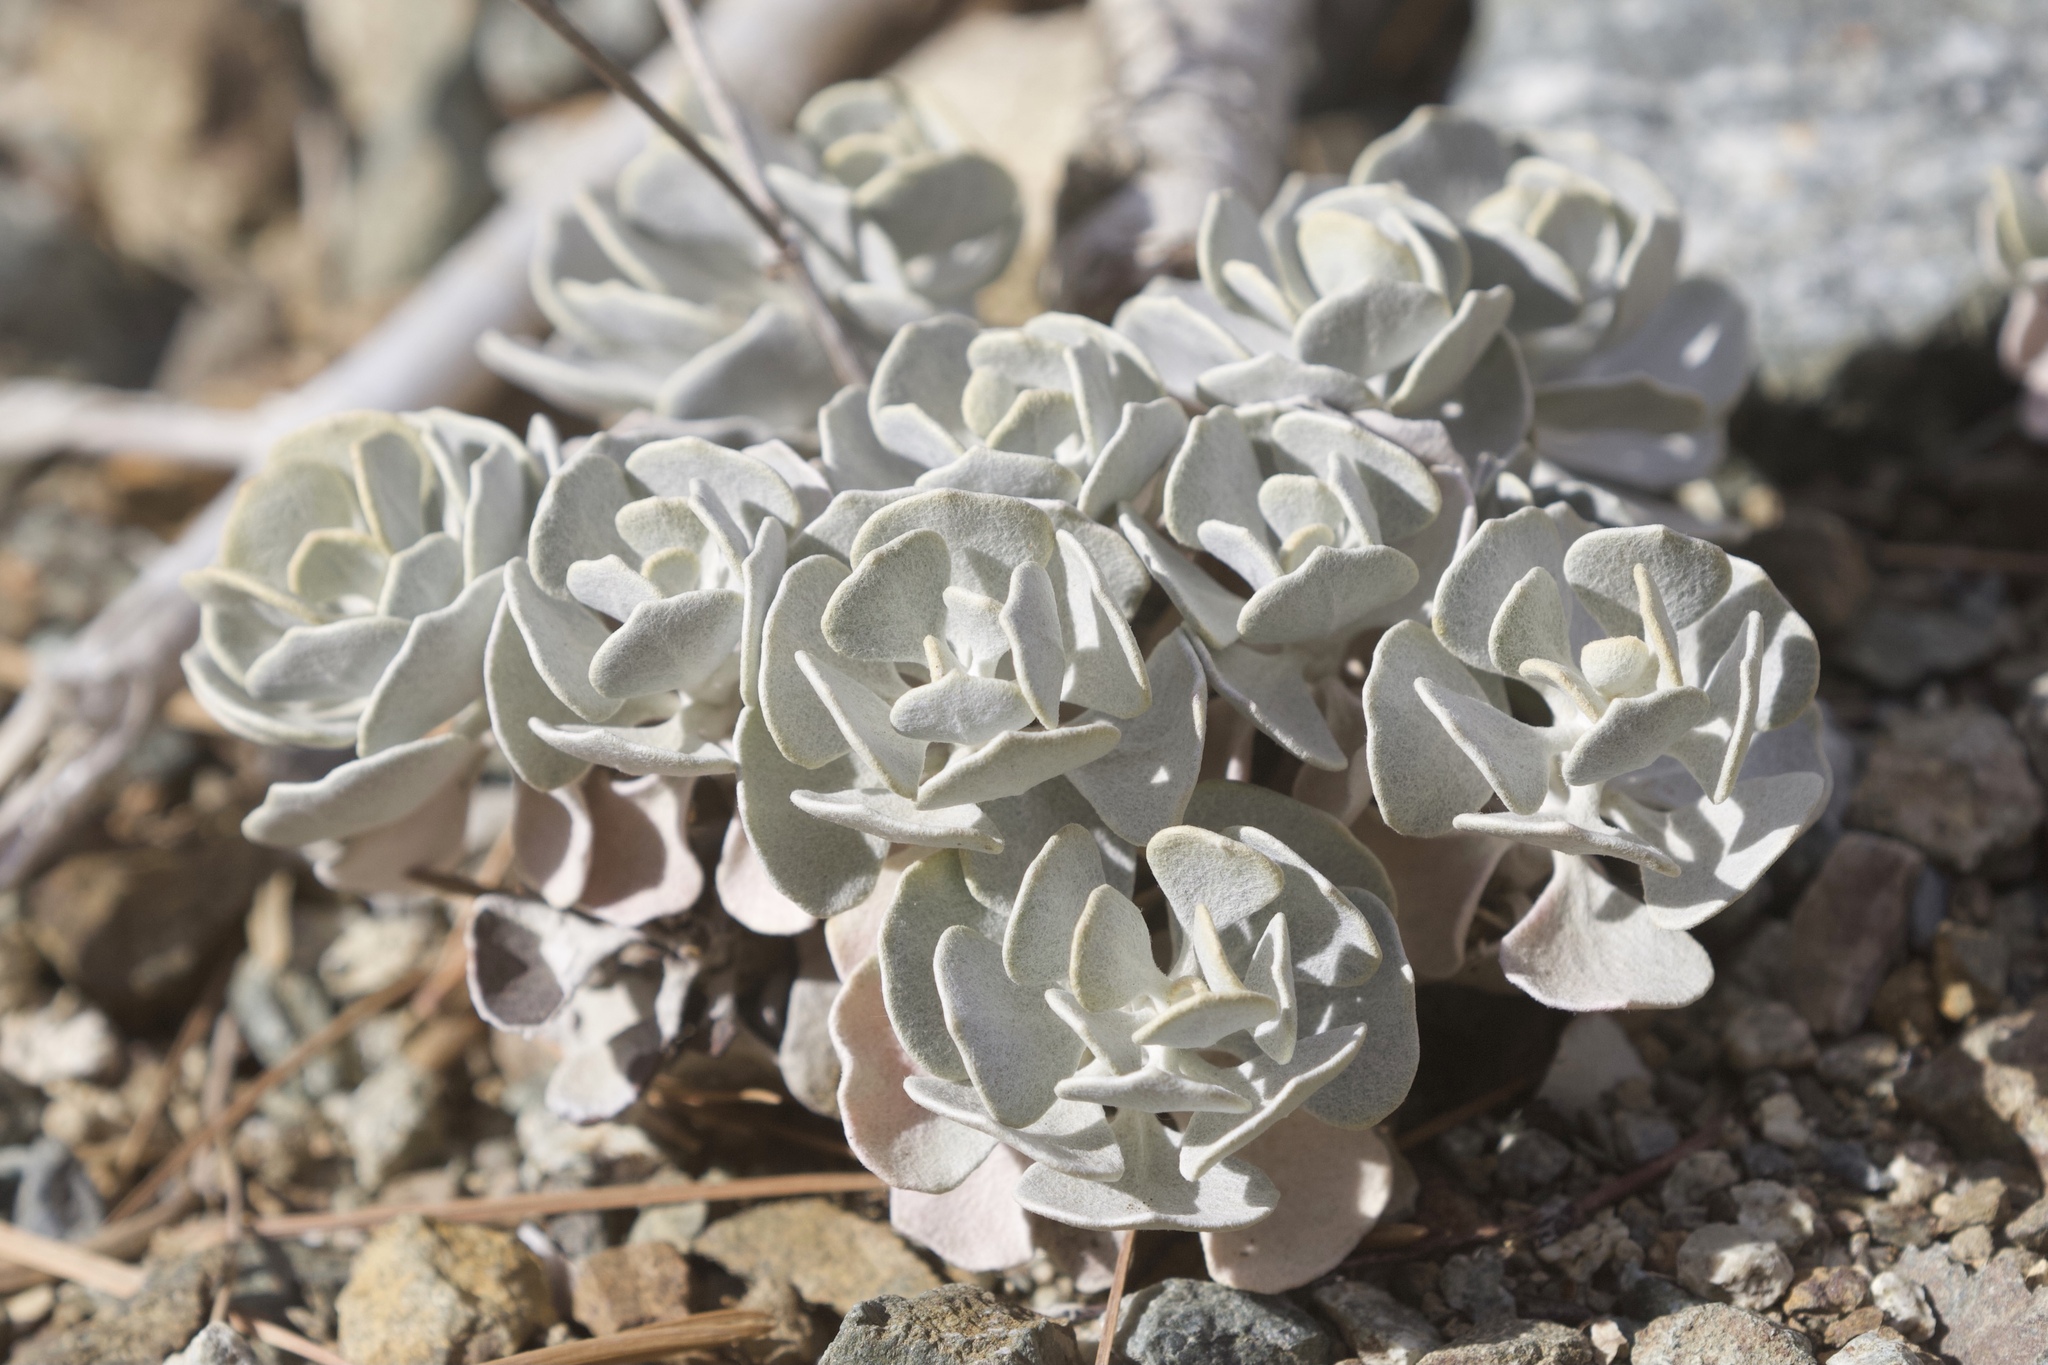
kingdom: Plantae
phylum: Tracheophyta
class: Magnoliopsida
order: Caryophyllales
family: Polygonaceae
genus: Eriogonum
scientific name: Eriogonum saxatile
